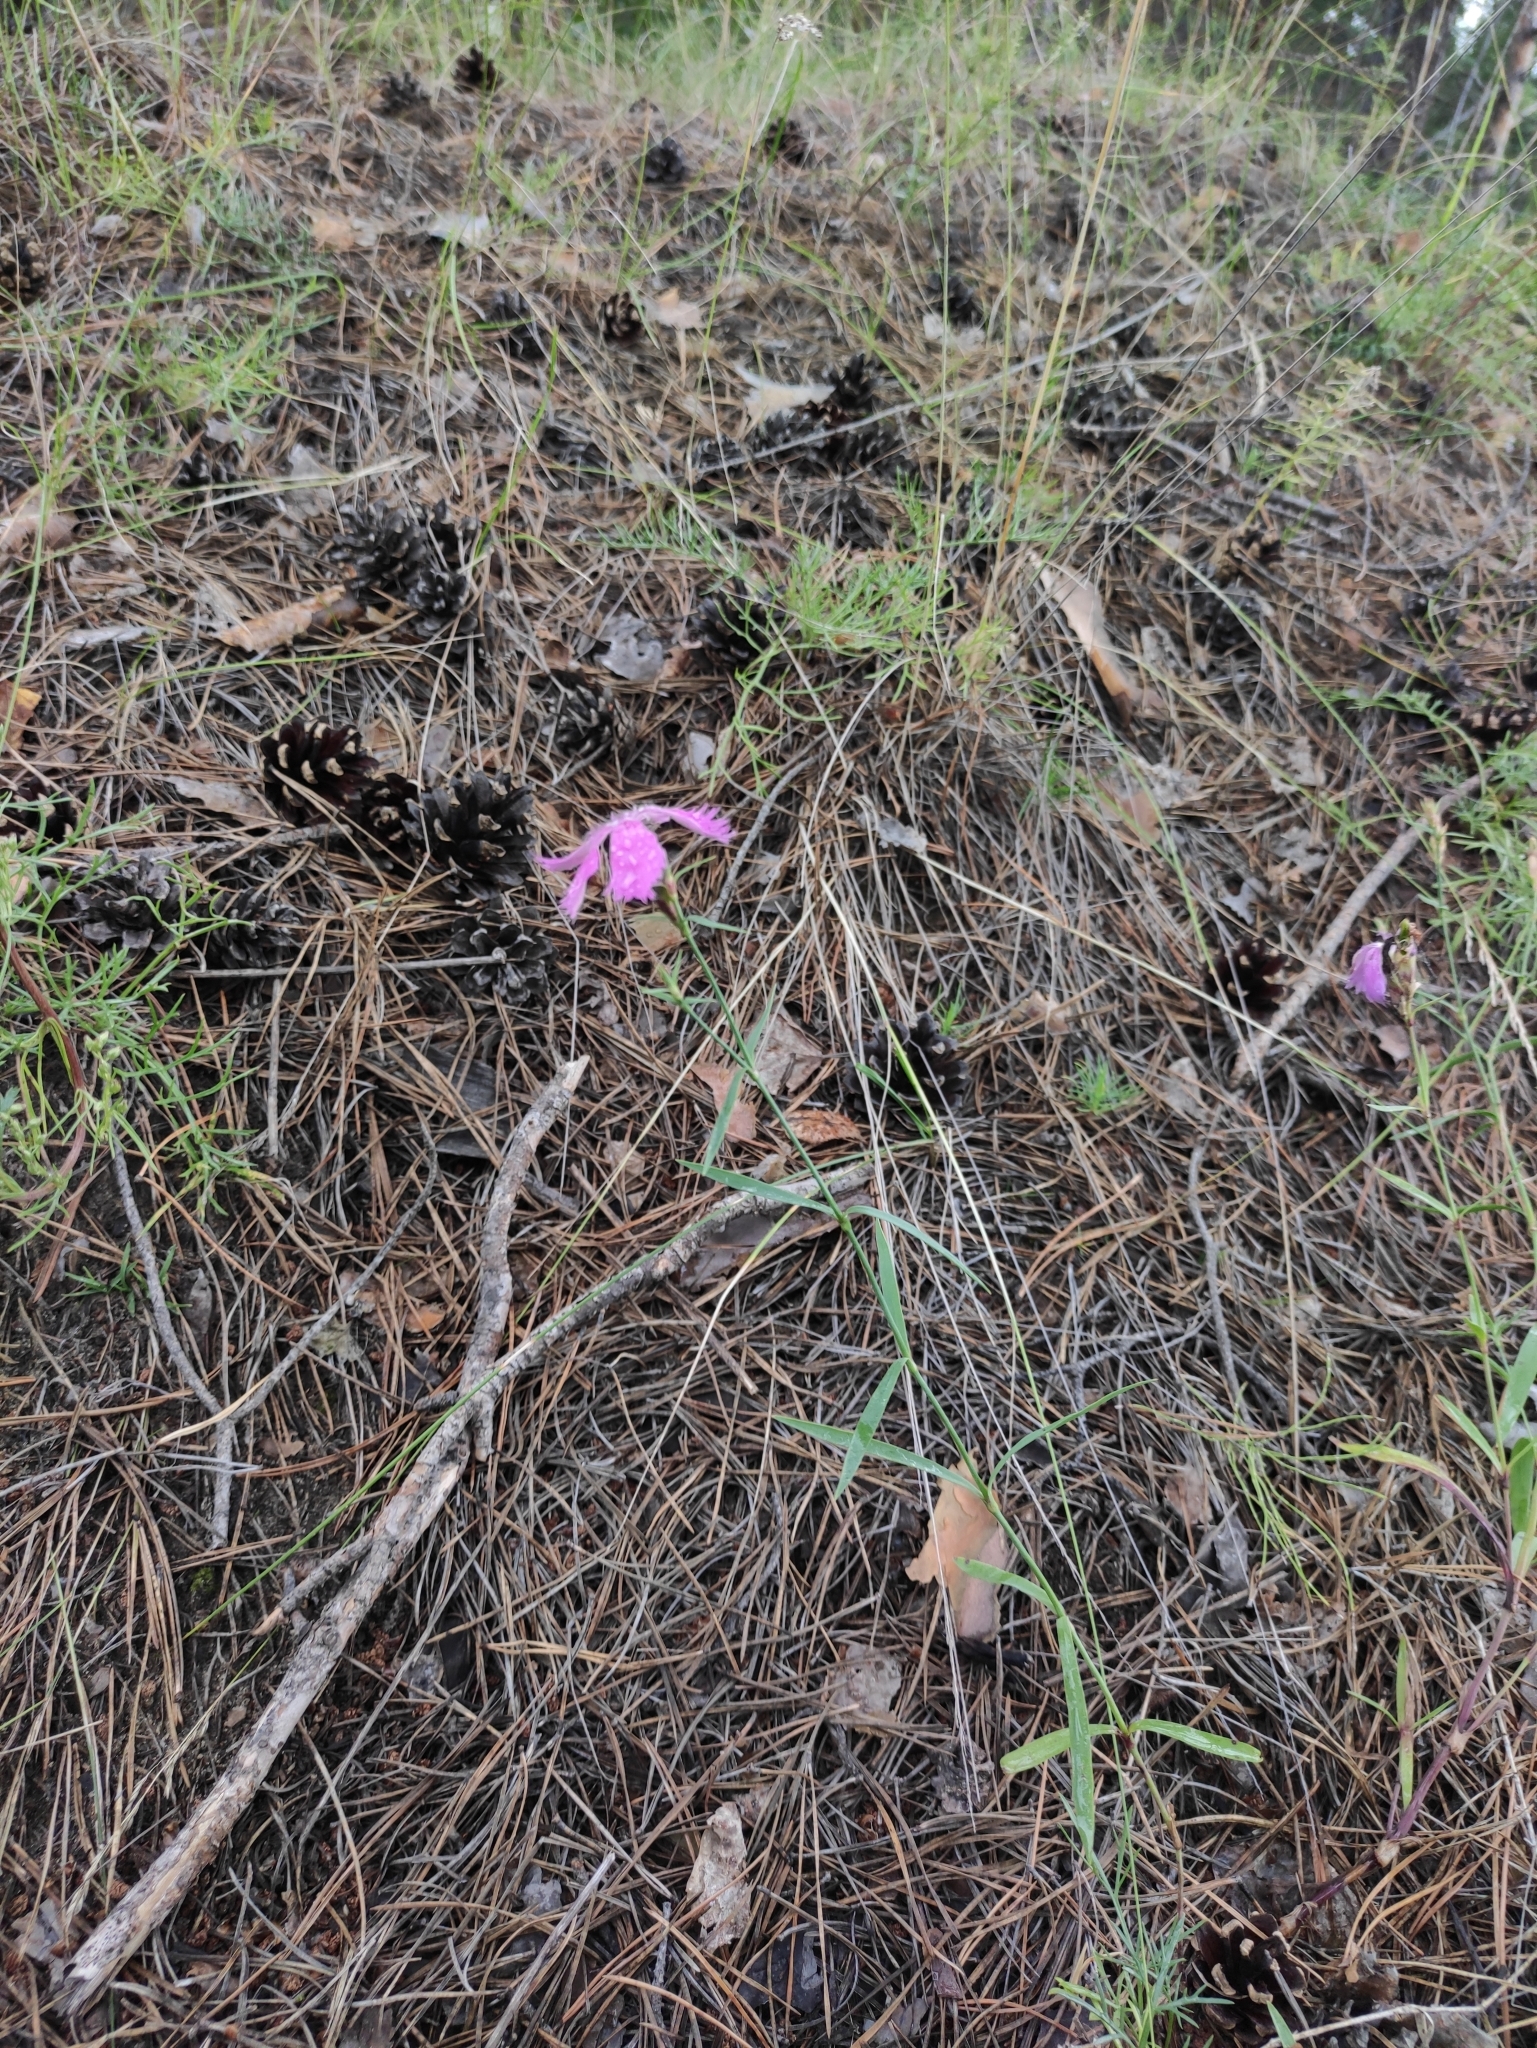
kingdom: Plantae
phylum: Tracheophyta
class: Magnoliopsida
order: Caryophyllales
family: Caryophyllaceae
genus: Dianthus
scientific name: Dianthus chinensis
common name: Rainbow pink
